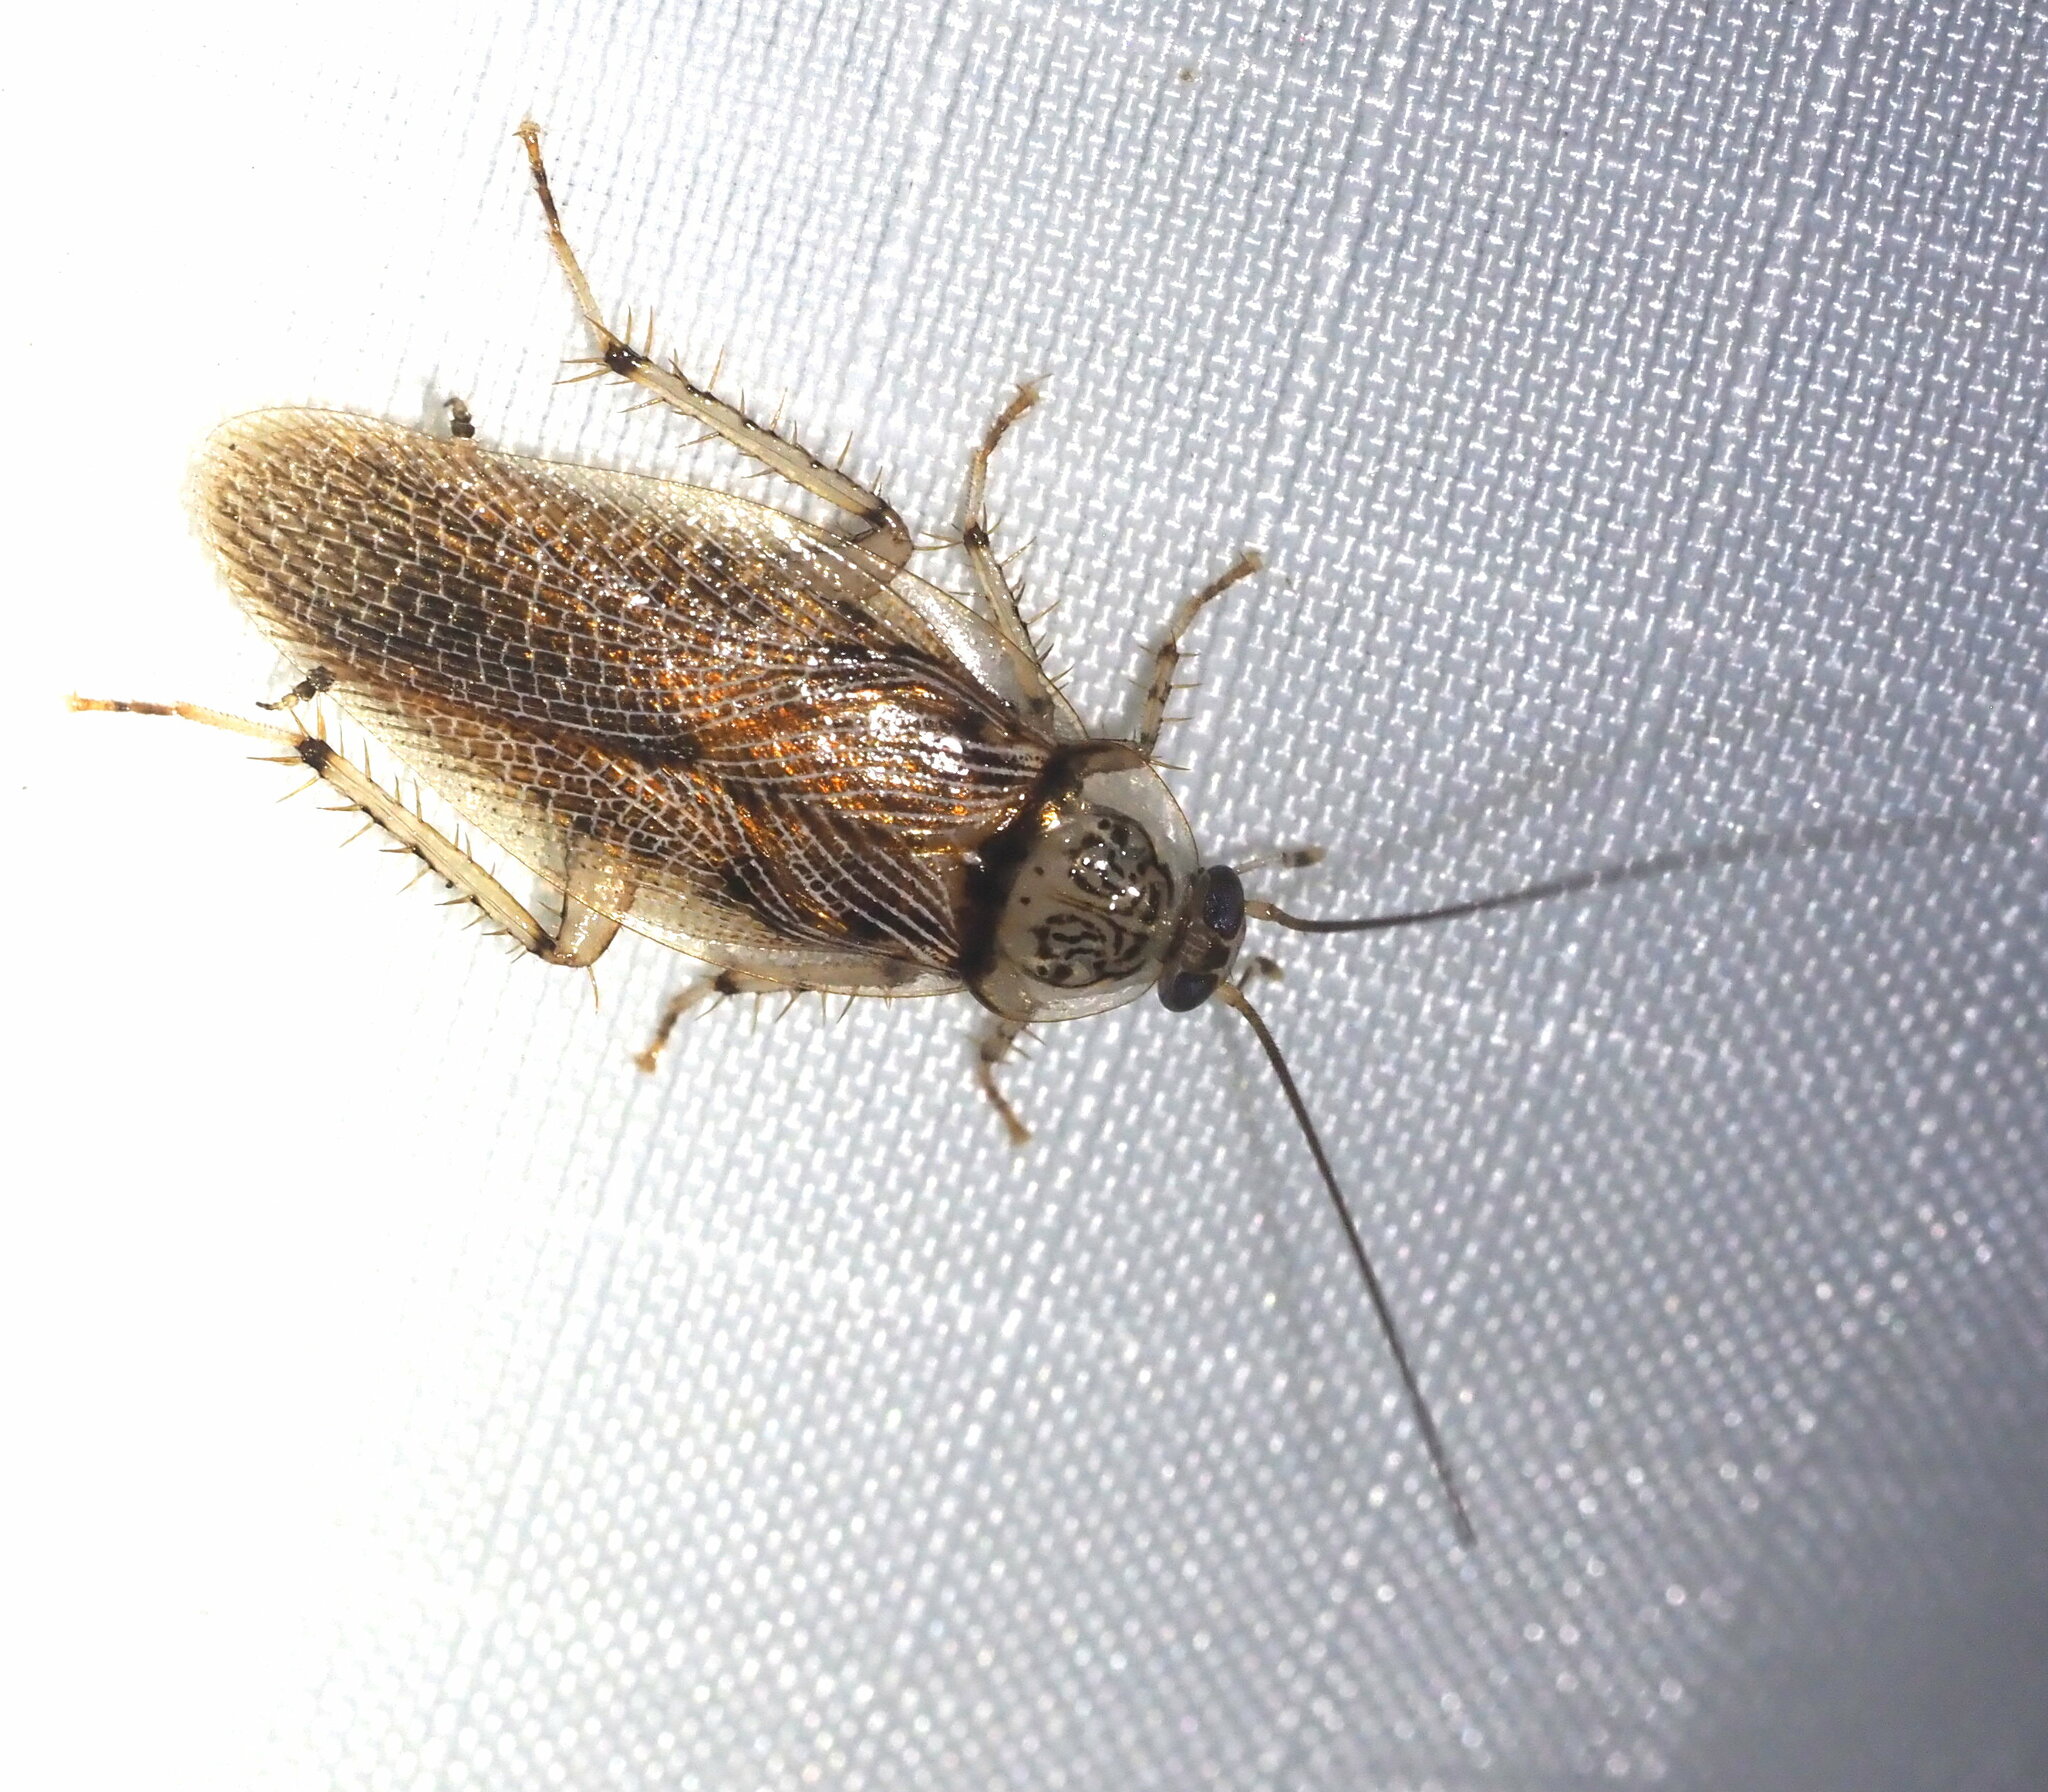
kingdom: Animalia
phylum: Arthropoda
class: Insecta
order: Blattodea
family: Ectobiidae
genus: Balta
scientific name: Balta notulata
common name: Cockroach
